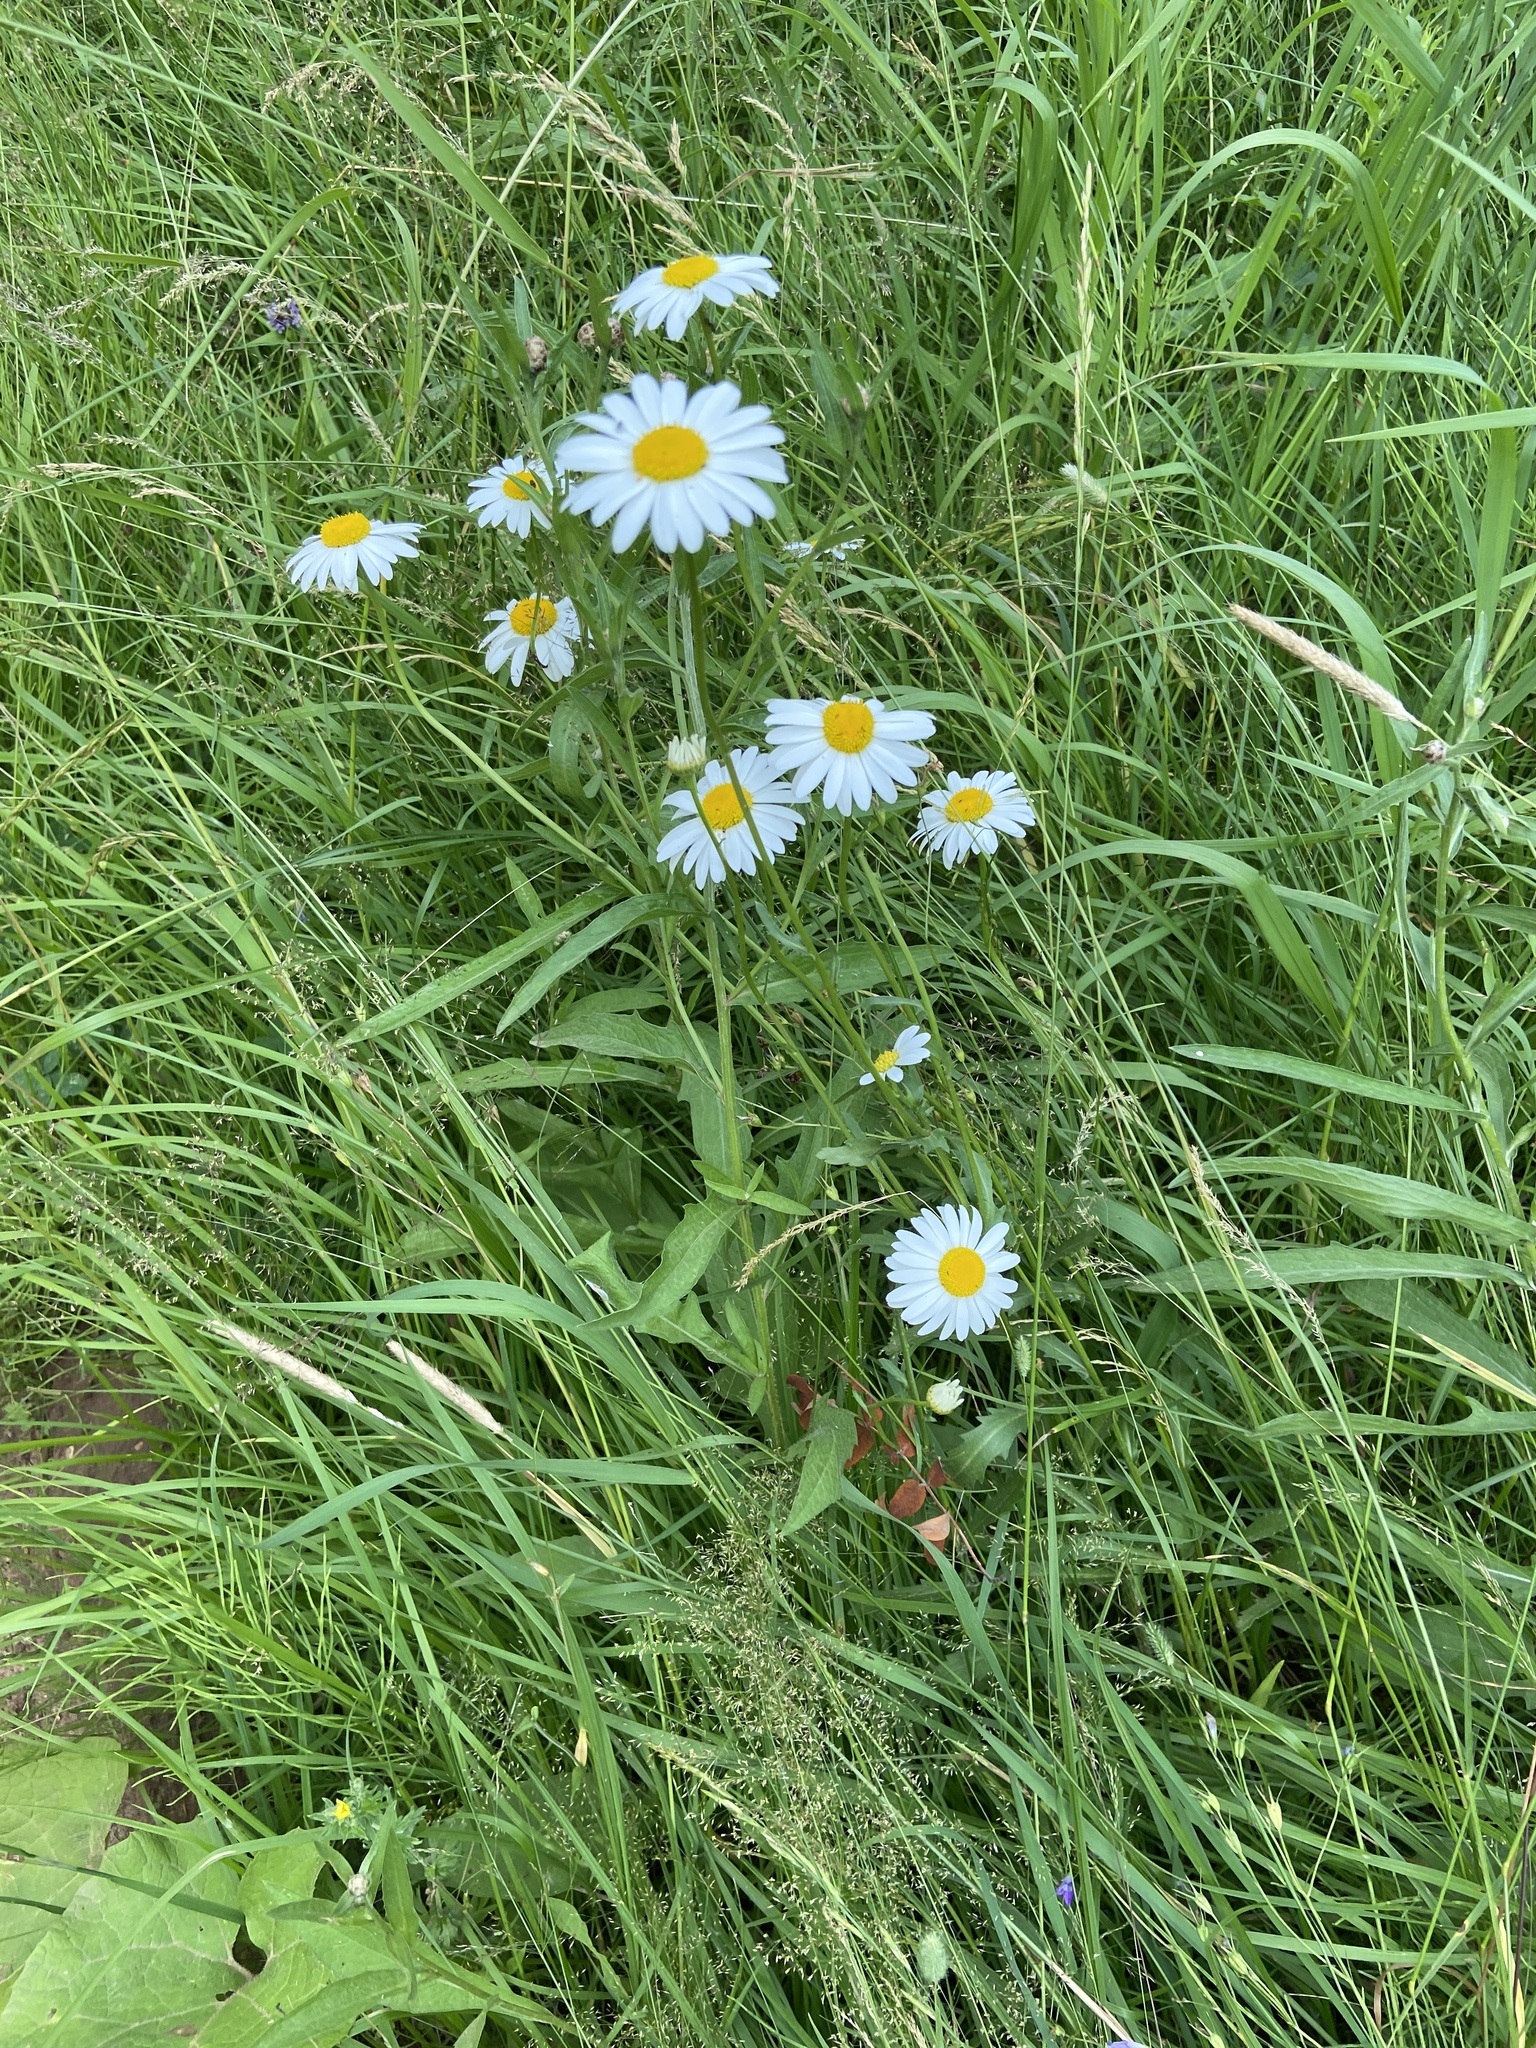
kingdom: Plantae
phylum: Tracheophyta
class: Magnoliopsida
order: Asterales
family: Asteraceae
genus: Leucanthemum
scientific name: Leucanthemum vulgare
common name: Oxeye daisy
